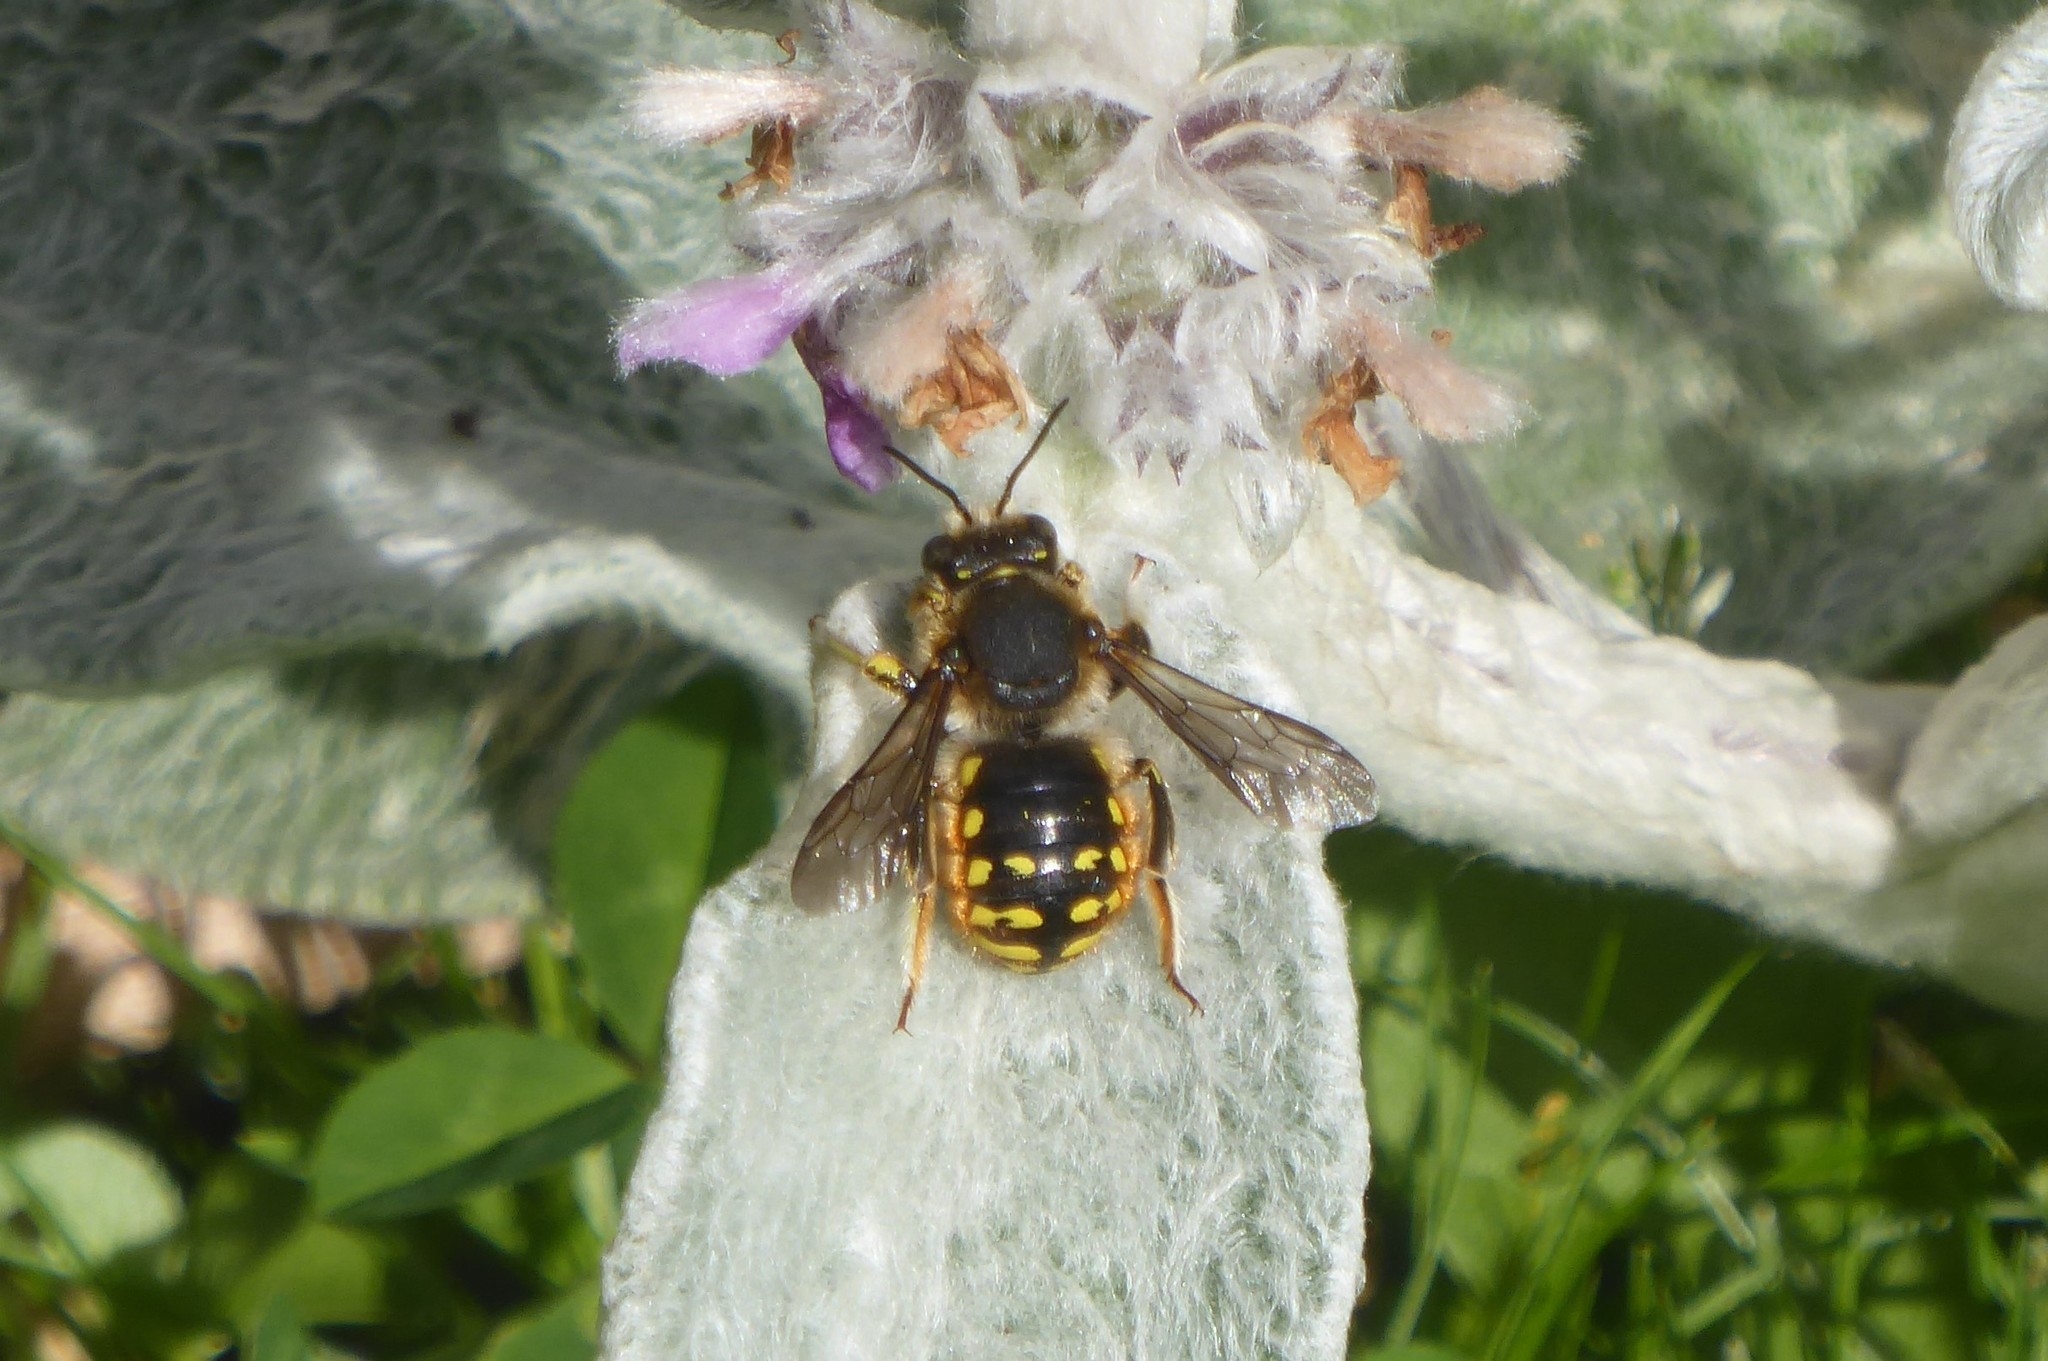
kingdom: Animalia
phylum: Arthropoda
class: Insecta
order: Hymenoptera
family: Megachilidae
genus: Anthidium
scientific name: Anthidium manicatum
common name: Wool carder bee
